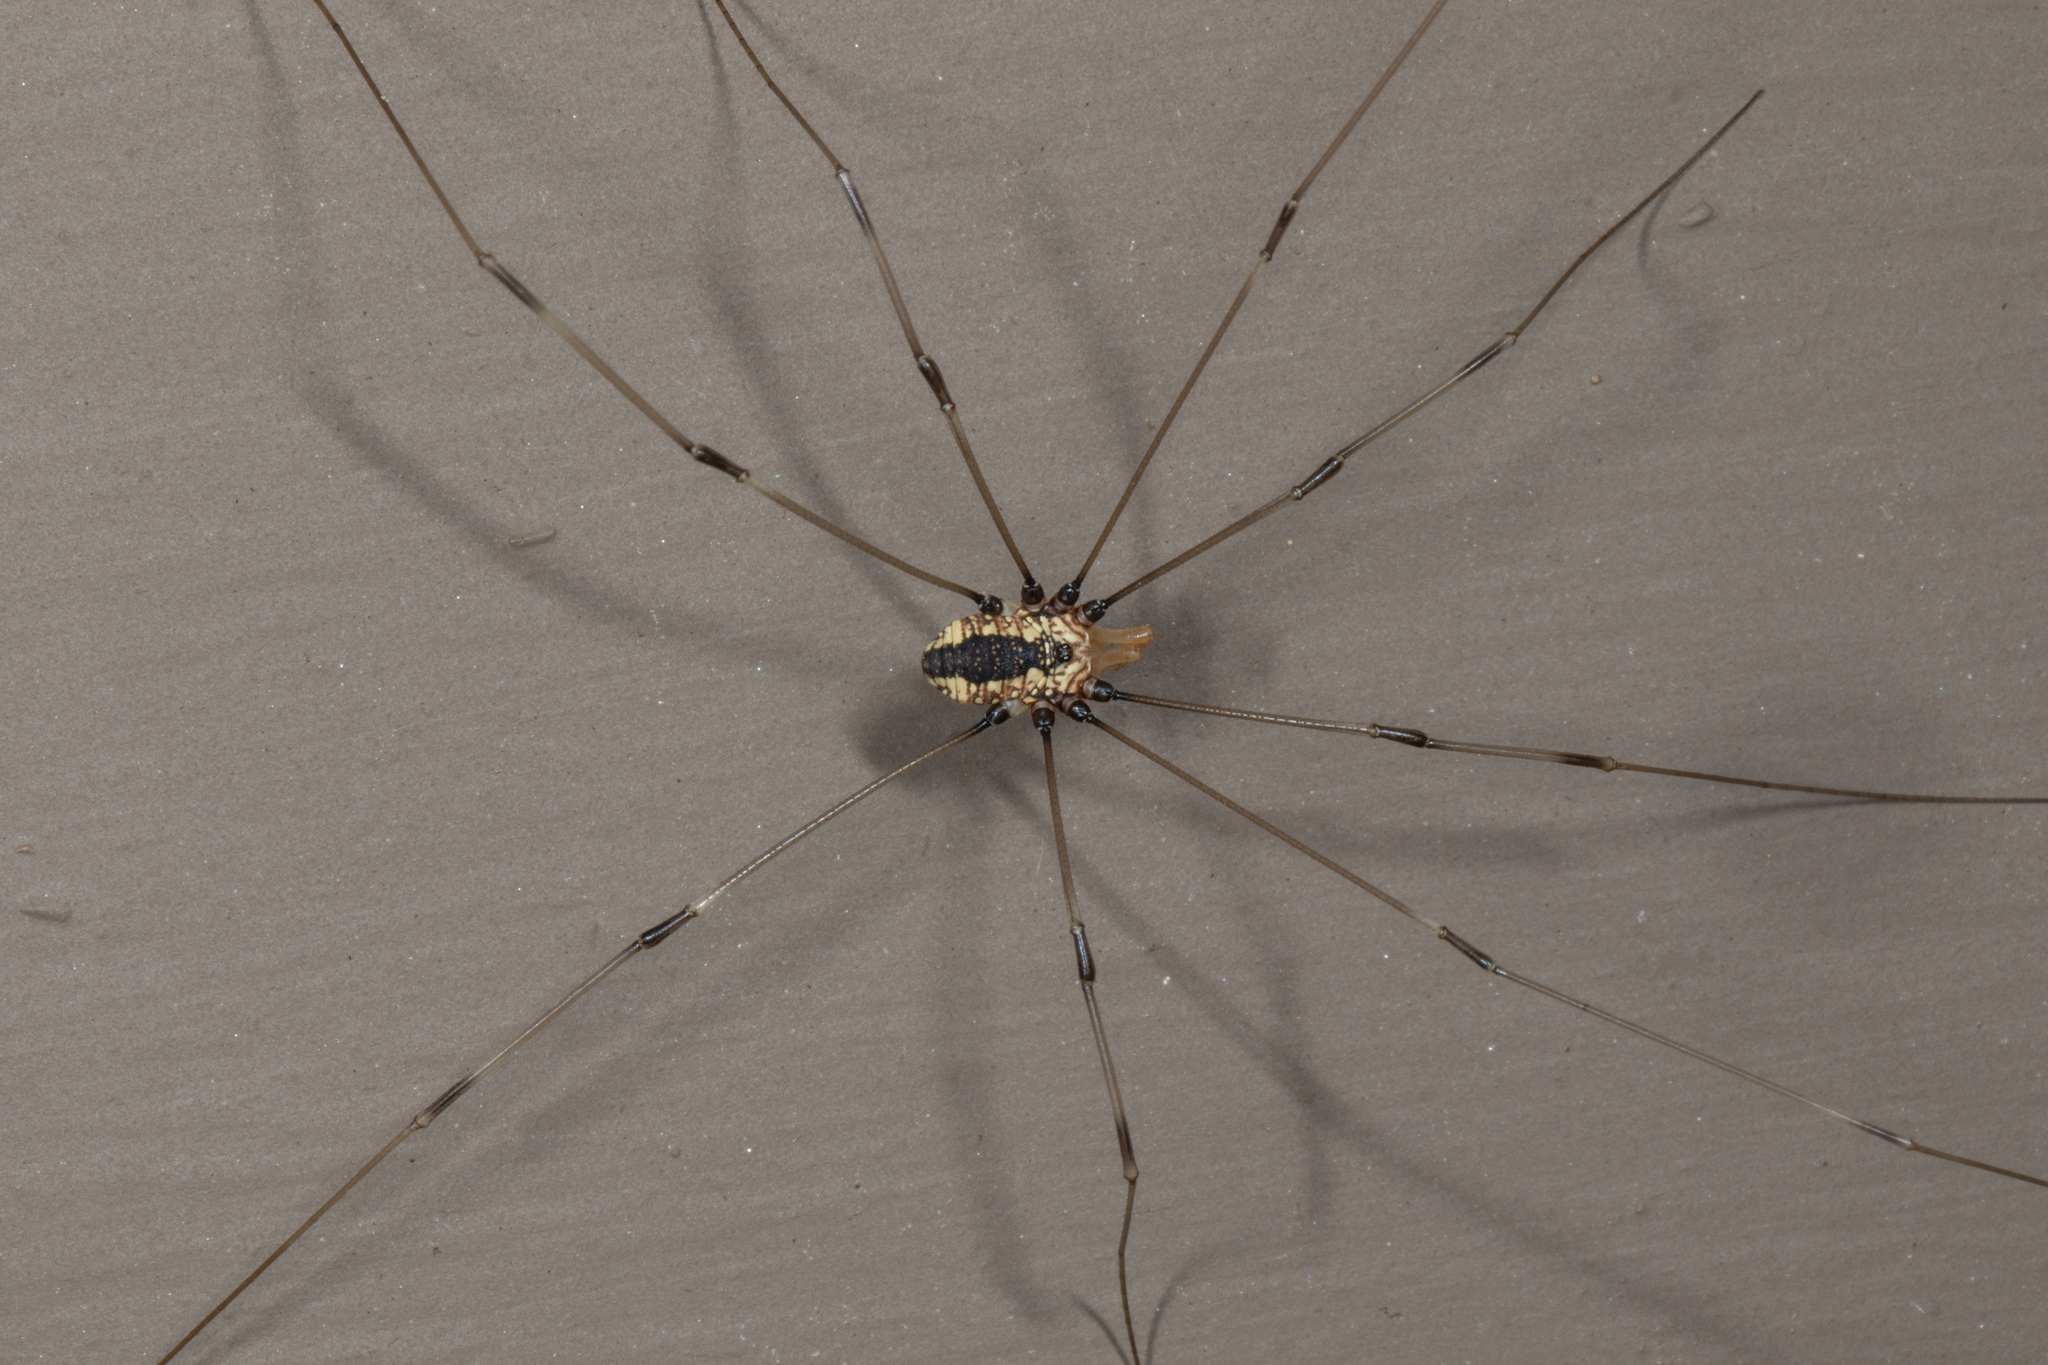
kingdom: Animalia
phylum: Arthropoda
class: Arachnida
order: Opiliones
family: Sclerosomatidae
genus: Leiobunum
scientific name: Leiobunum vittatum
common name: Eastern harvestman
